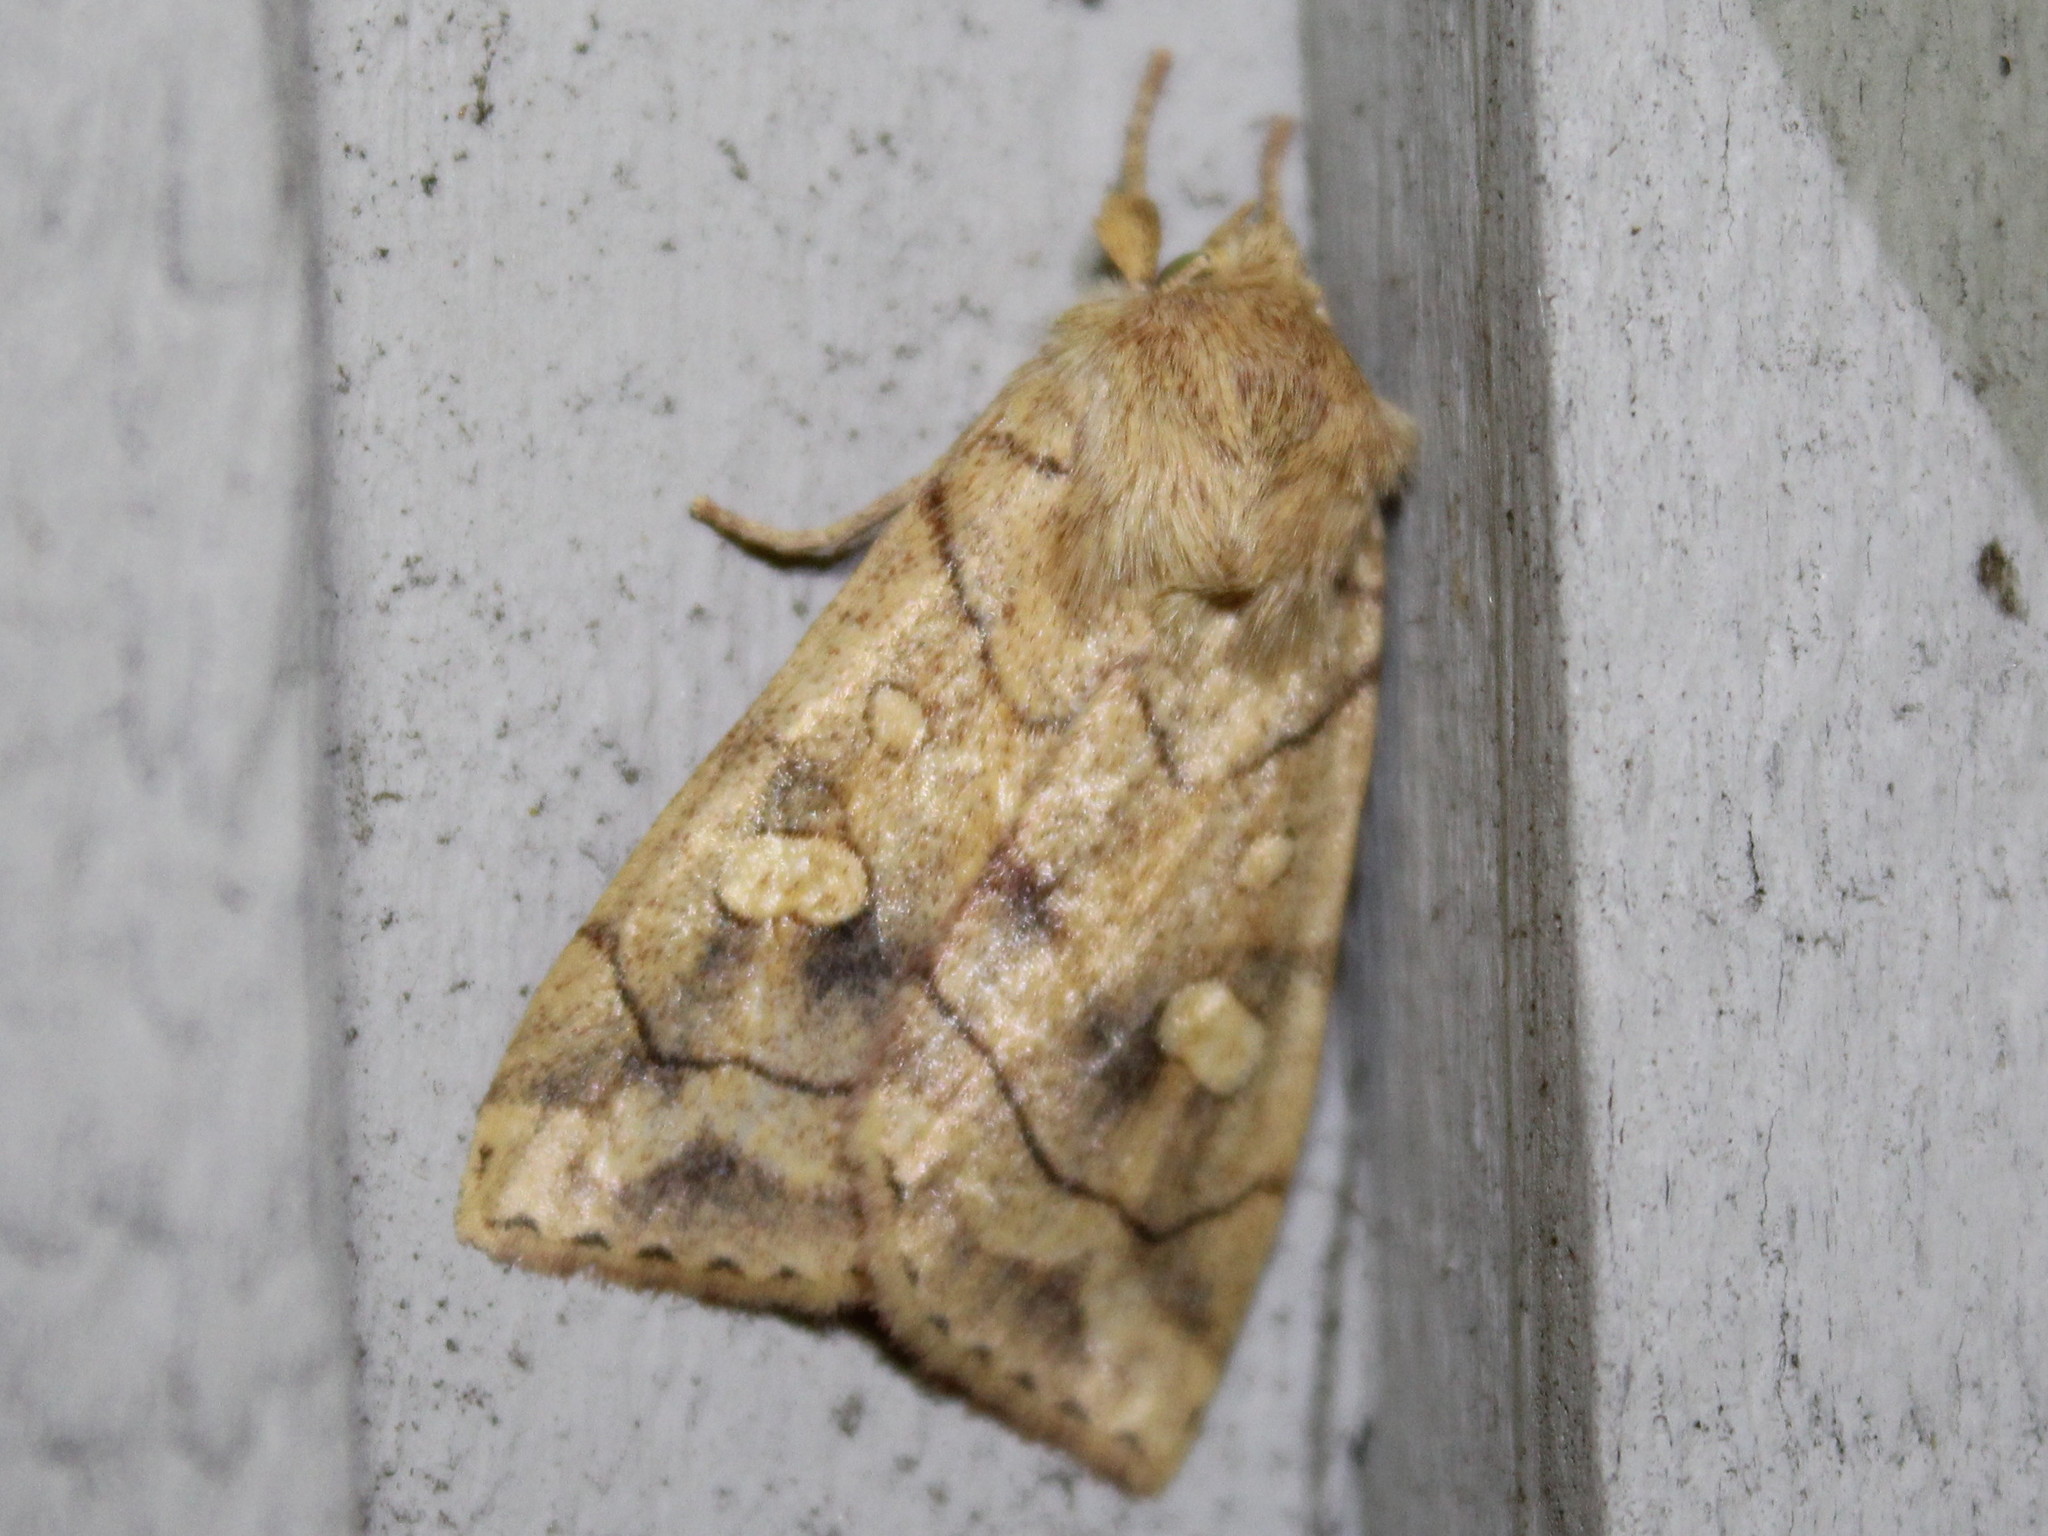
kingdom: Animalia
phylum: Arthropoda
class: Insecta
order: Lepidoptera
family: Noctuidae
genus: Enargia
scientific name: Enargia decolor
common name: Aspen twoleaf tier moth
